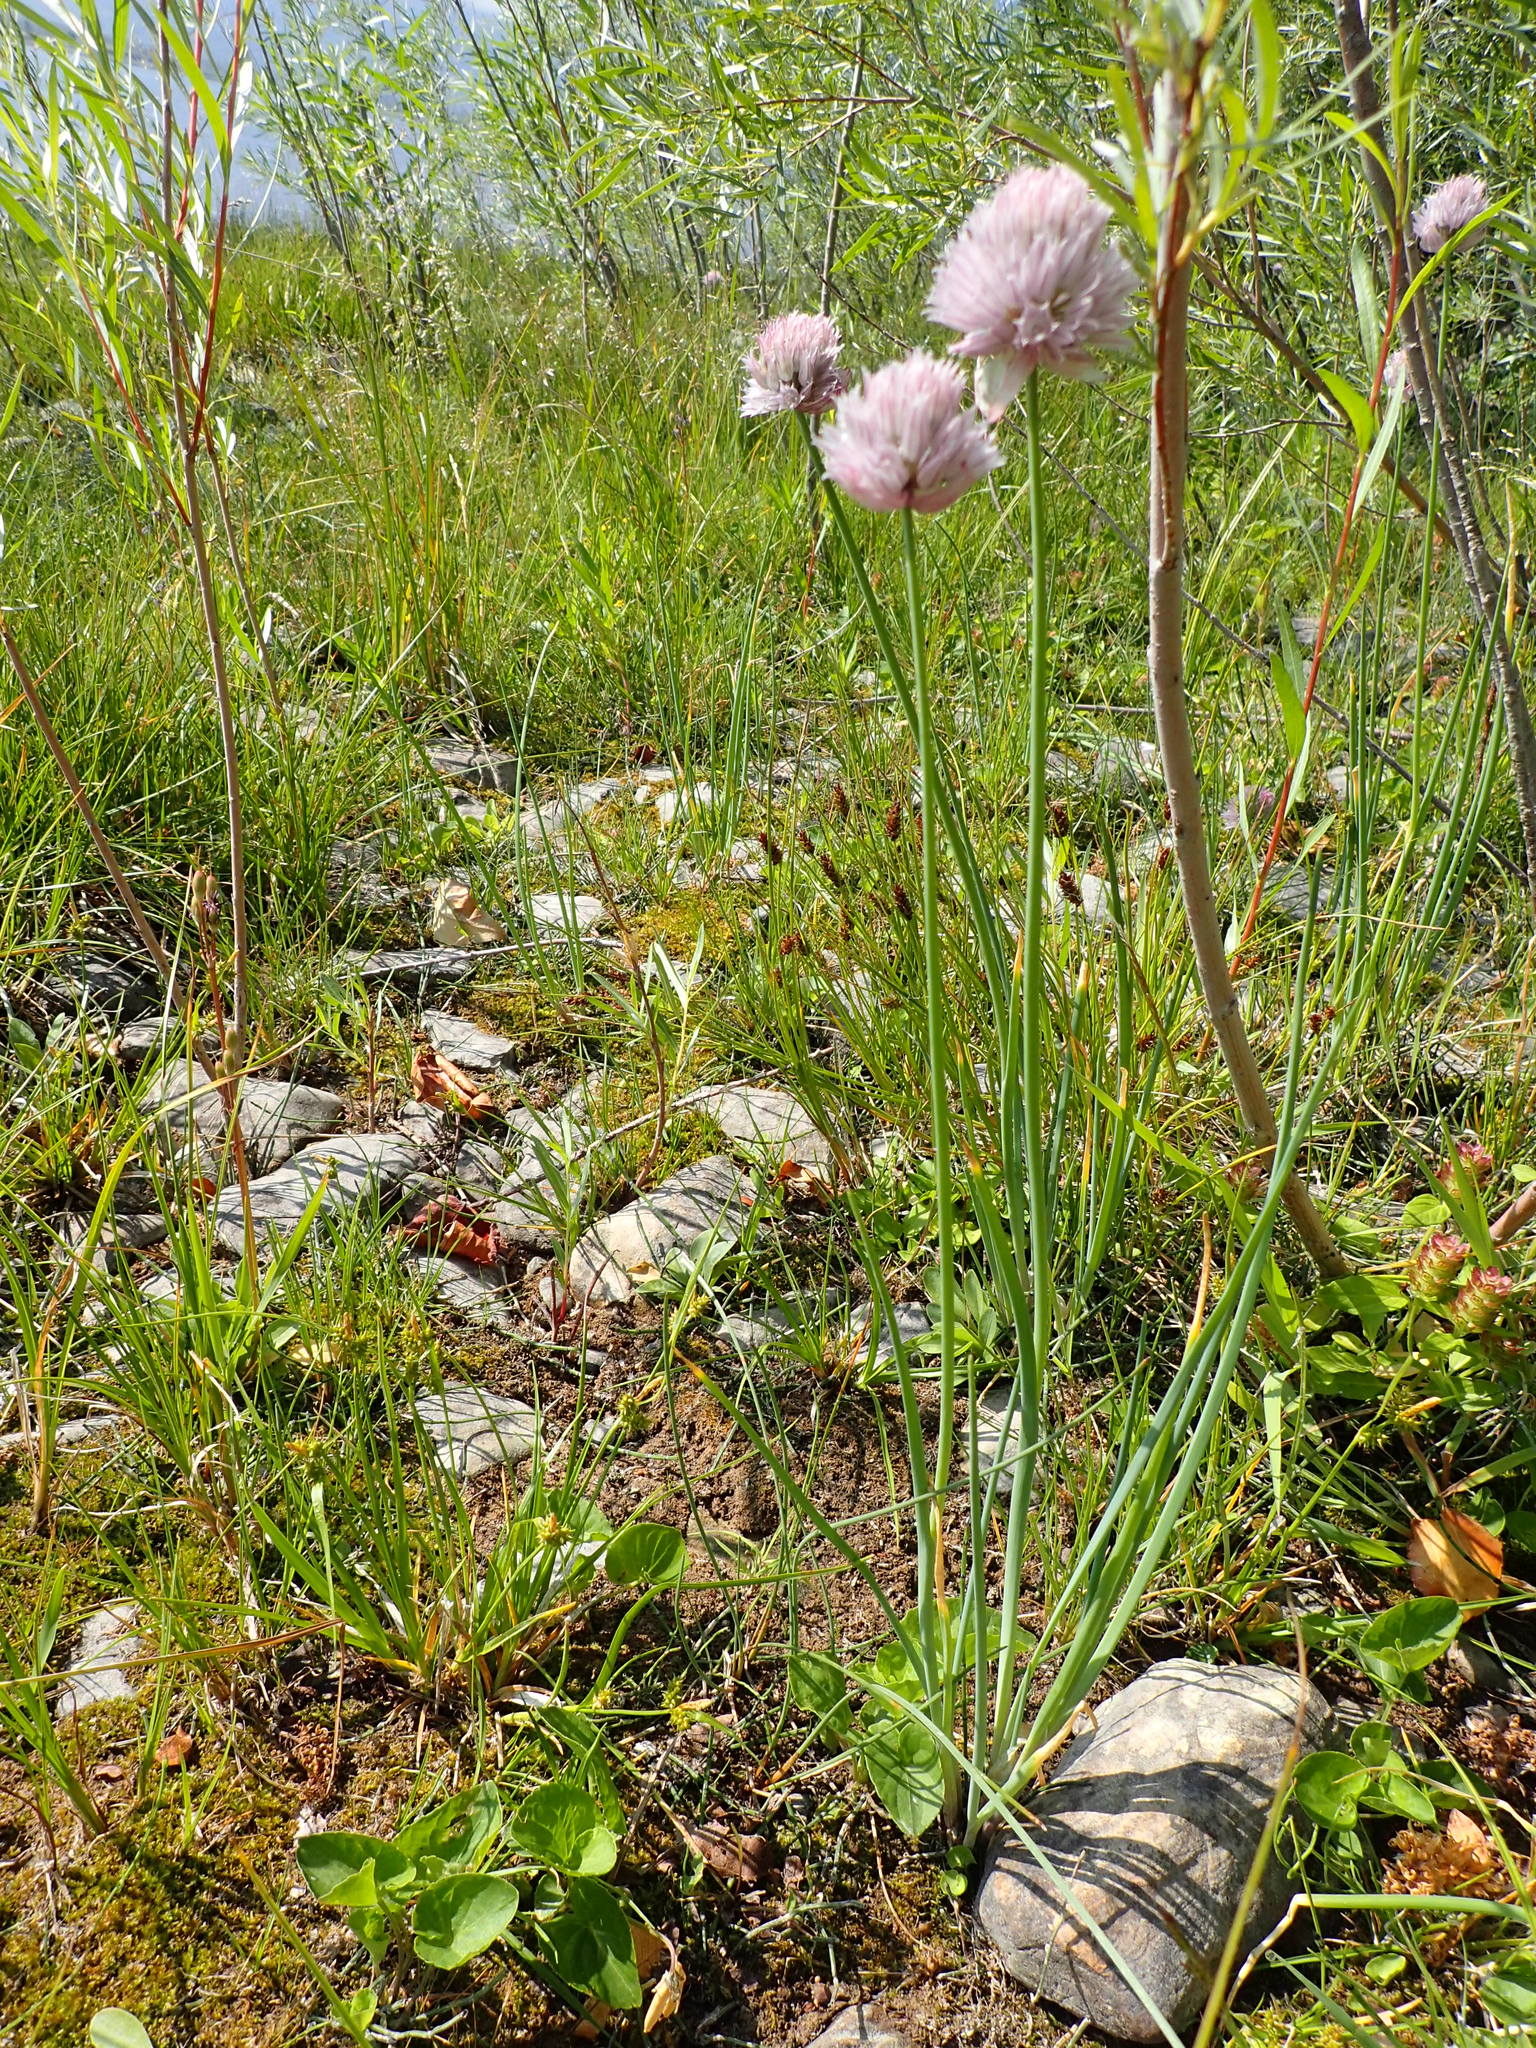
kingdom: Plantae
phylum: Tracheophyta
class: Liliopsida
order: Asparagales
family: Amaryllidaceae
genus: Allium
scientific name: Allium schoenoprasum
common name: Chives
